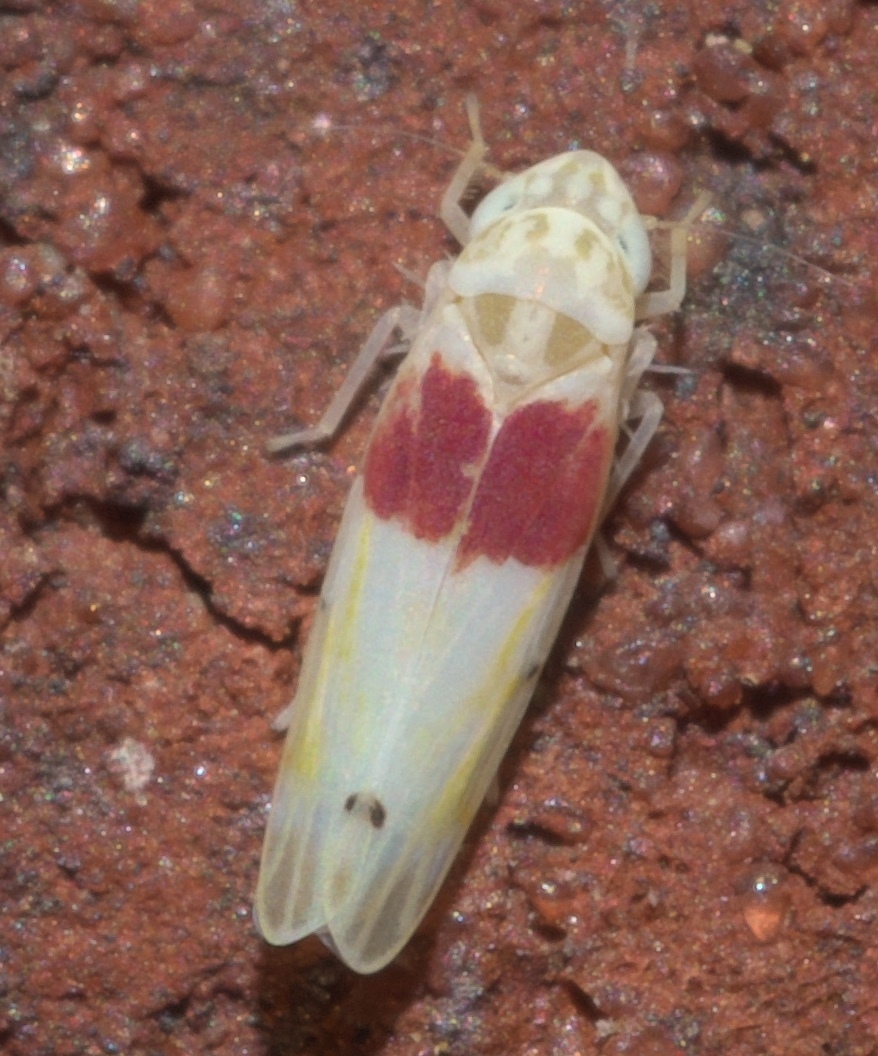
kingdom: Animalia
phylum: Arthropoda
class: Insecta
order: Hemiptera
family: Cicadellidae
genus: Eratoneura
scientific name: Eratoneura osborni
